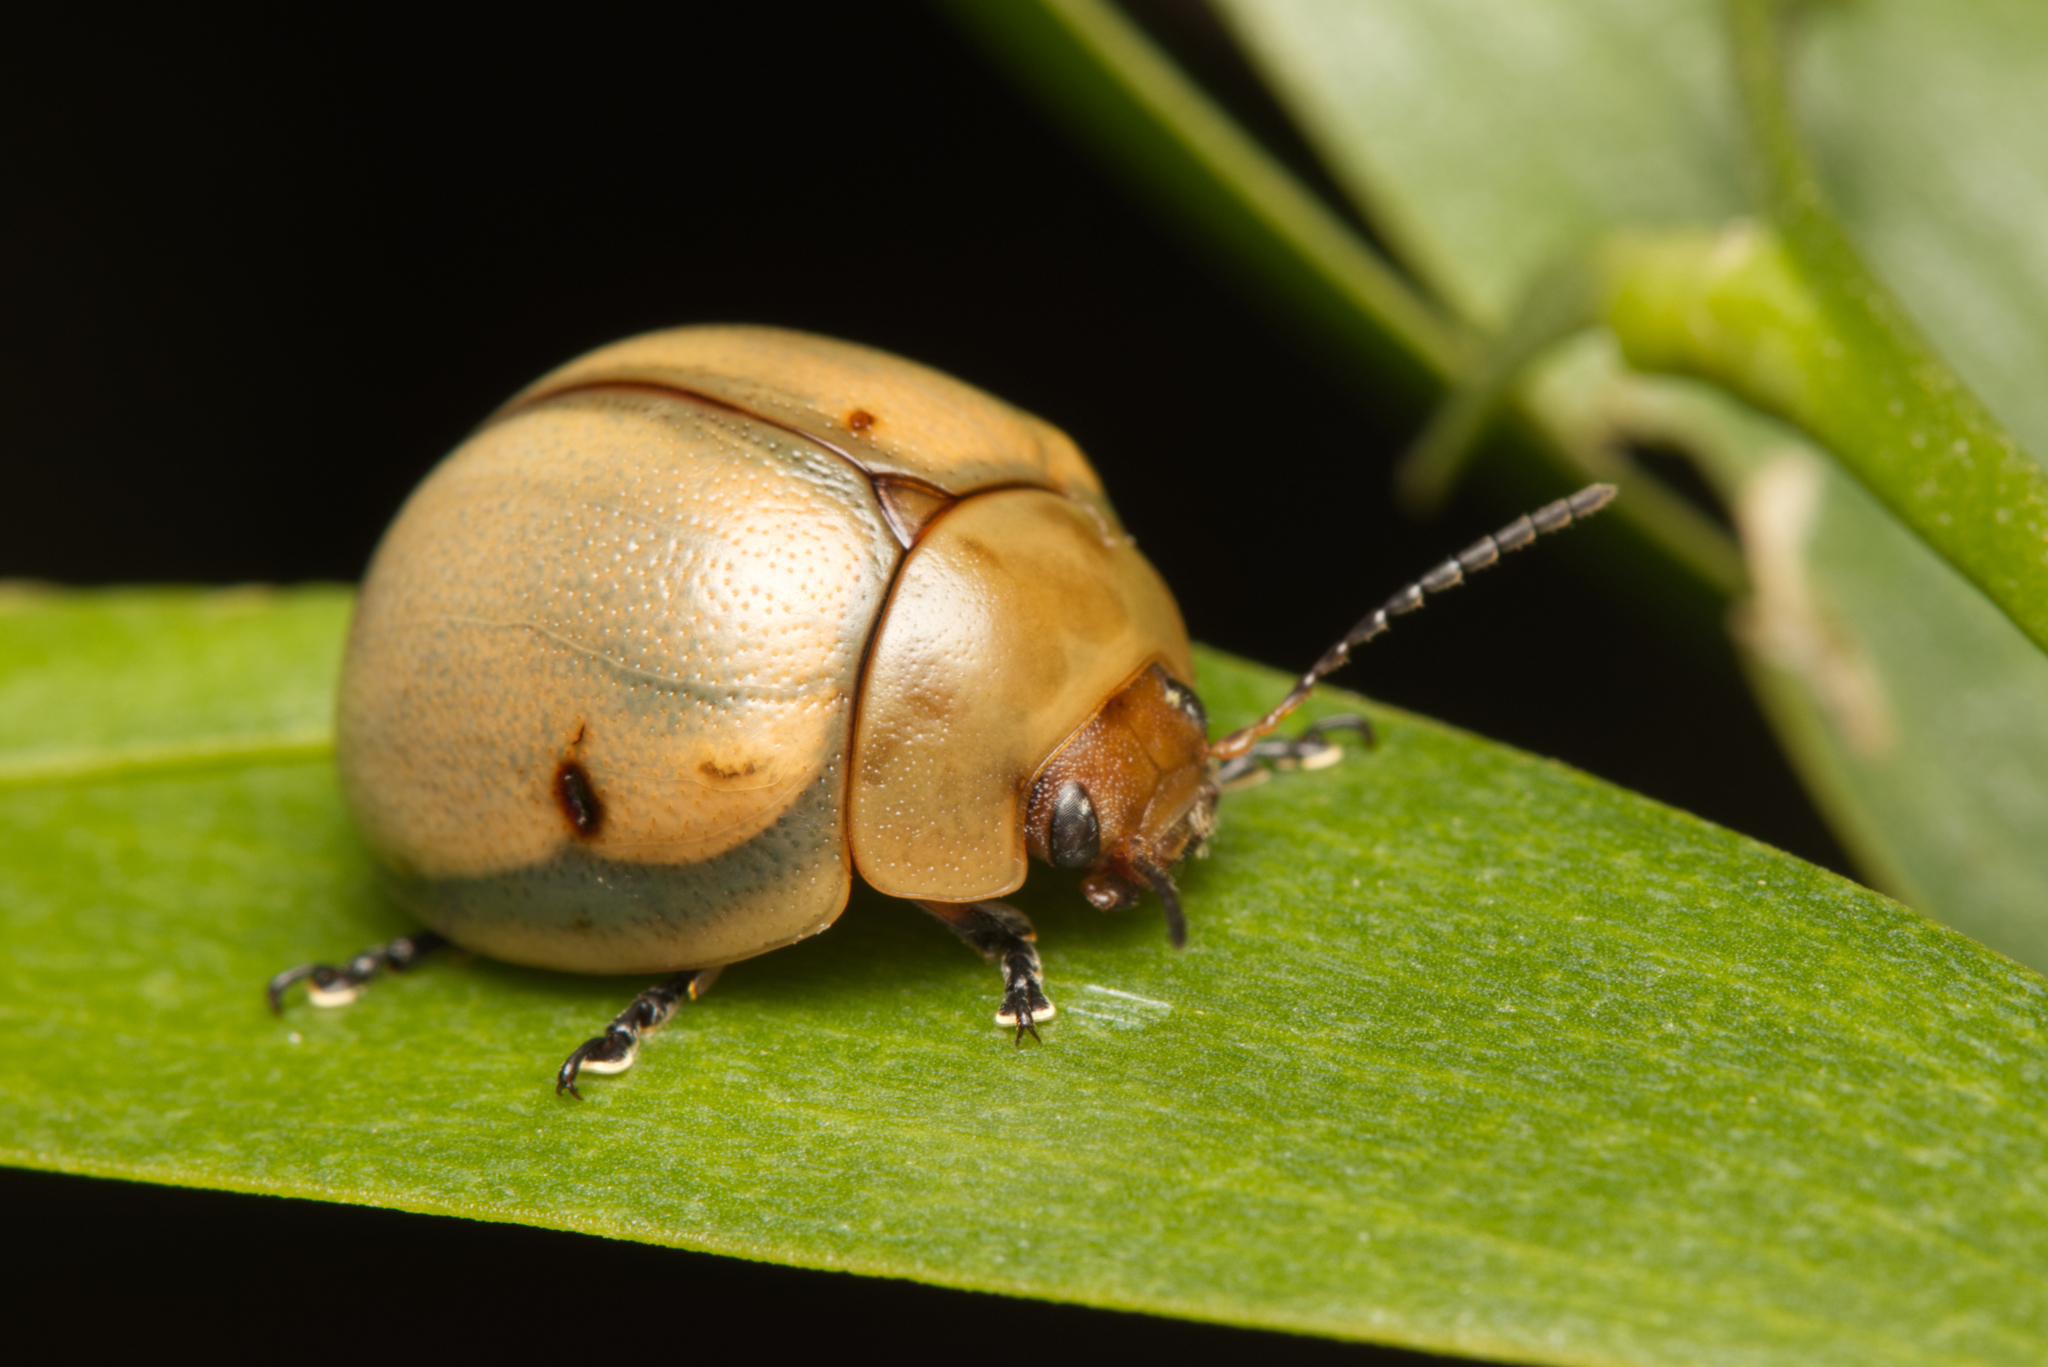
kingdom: Animalia
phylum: Arthropoda
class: Insecta
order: Coleoptera
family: Chrysomelidae
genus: Dicranosterna
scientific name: Dicranosterna
